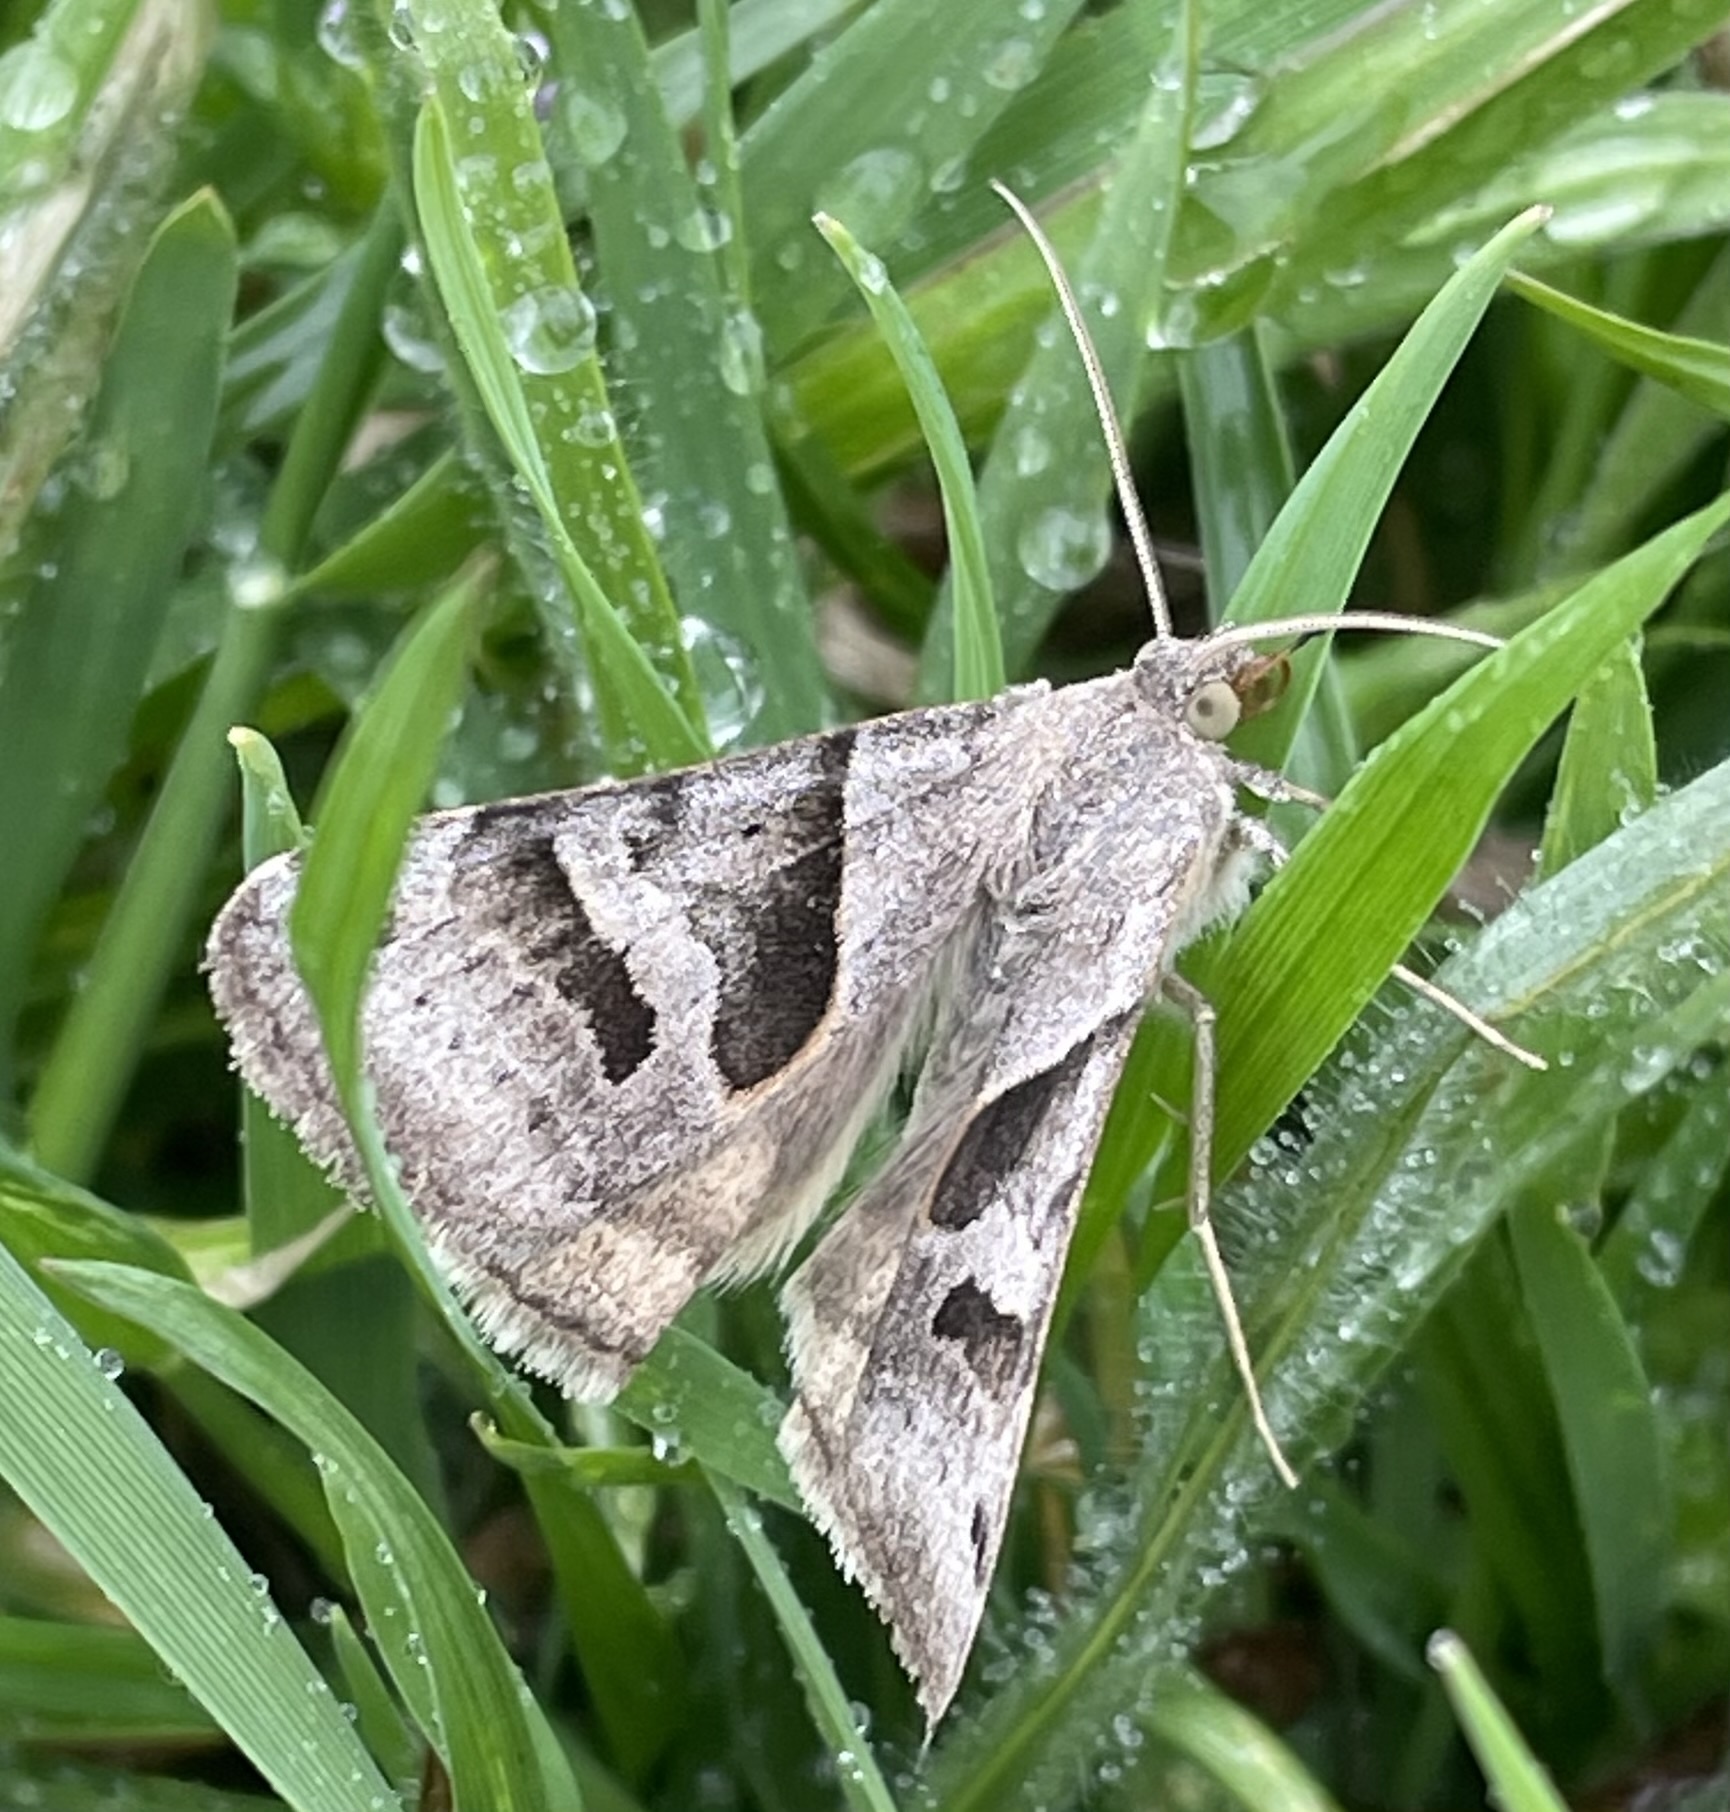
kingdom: Animalia
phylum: Arthropoda
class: Insecta
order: Lepidoptera
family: Erebidae
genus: Caenurgina
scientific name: Caenurgina erechtea
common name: Forage looper moth
